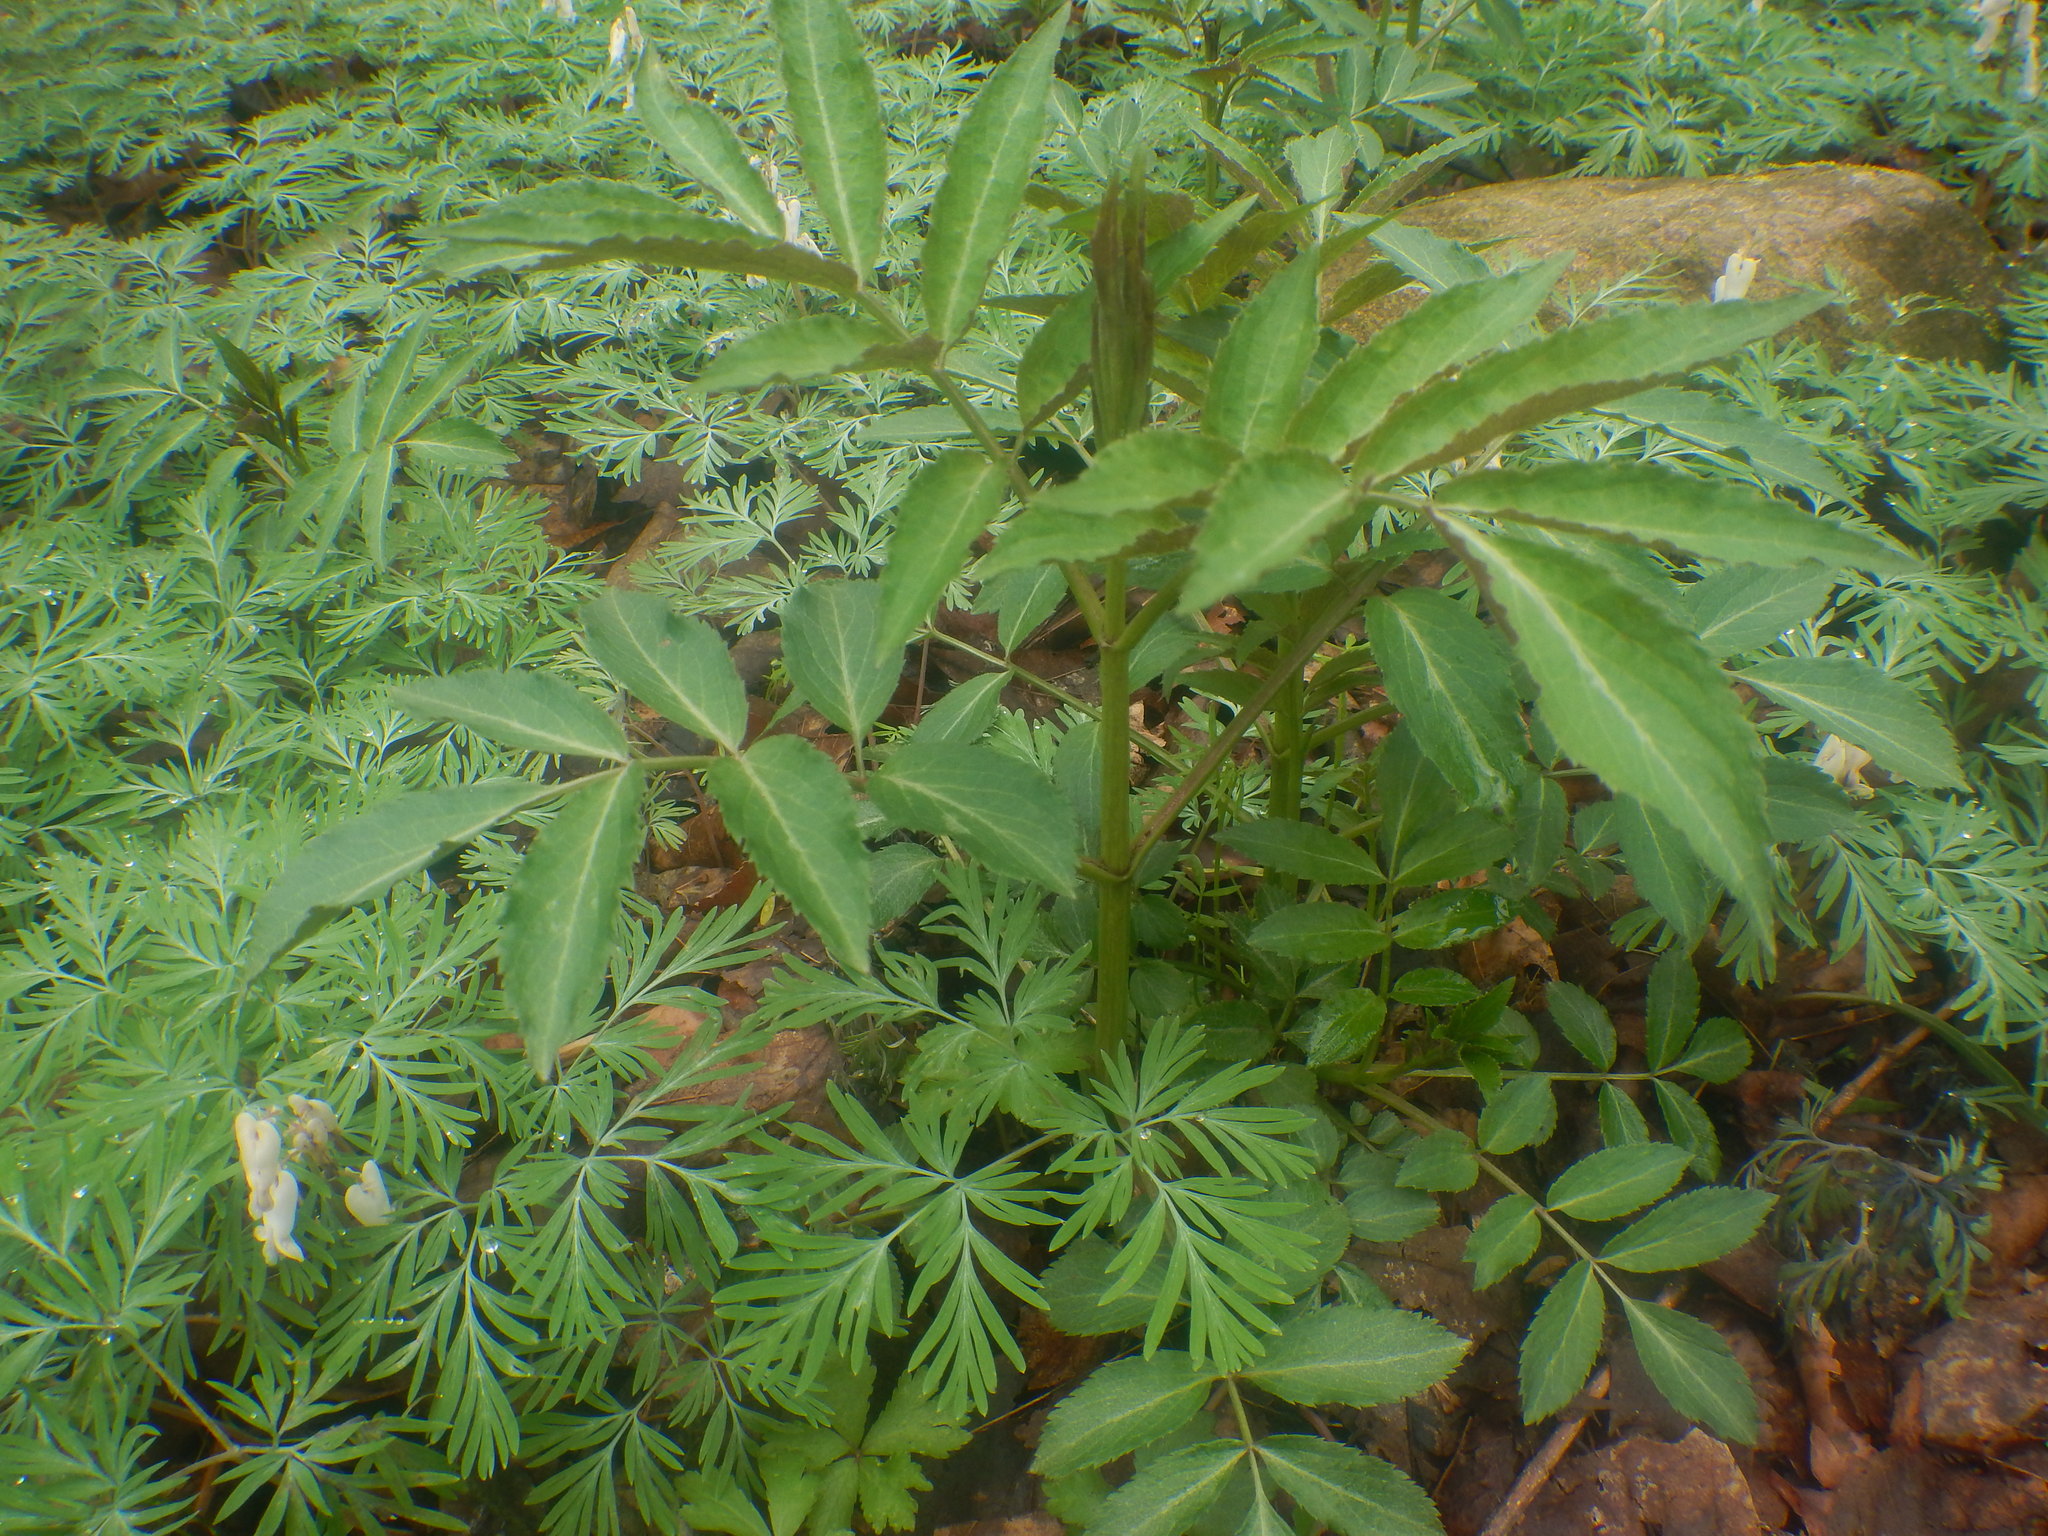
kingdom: Plantae
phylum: Tracheophyta
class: Magnoliopsida
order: Dipsacales
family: Viburnaceae
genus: Sambucus
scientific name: Sambucus canadensis
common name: American elder
